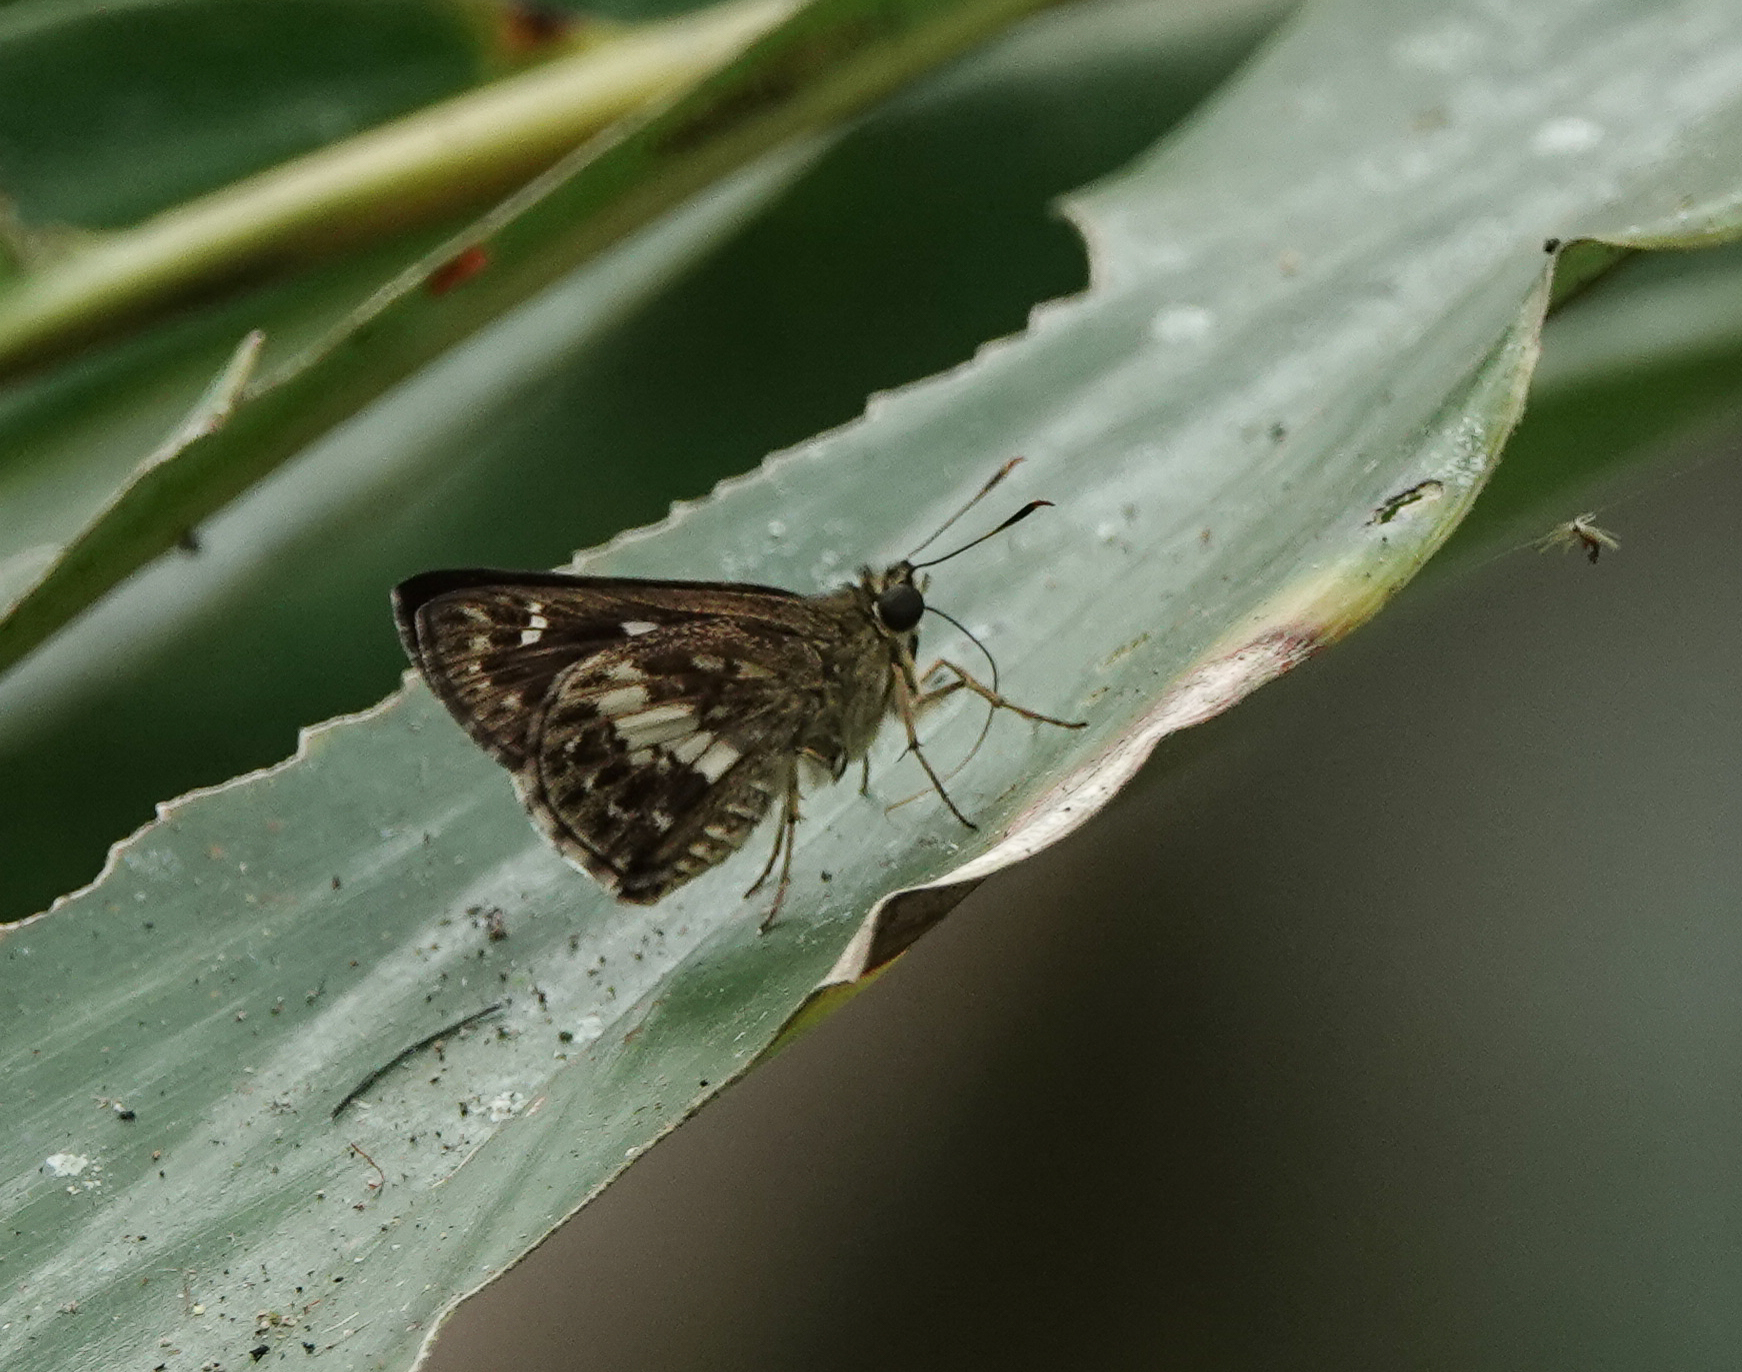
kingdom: Animalia
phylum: Arthropoda
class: Insecta
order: Lepidoptera
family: Hesperiidae
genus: Halpe
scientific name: Halpe porus
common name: Moore's ace
